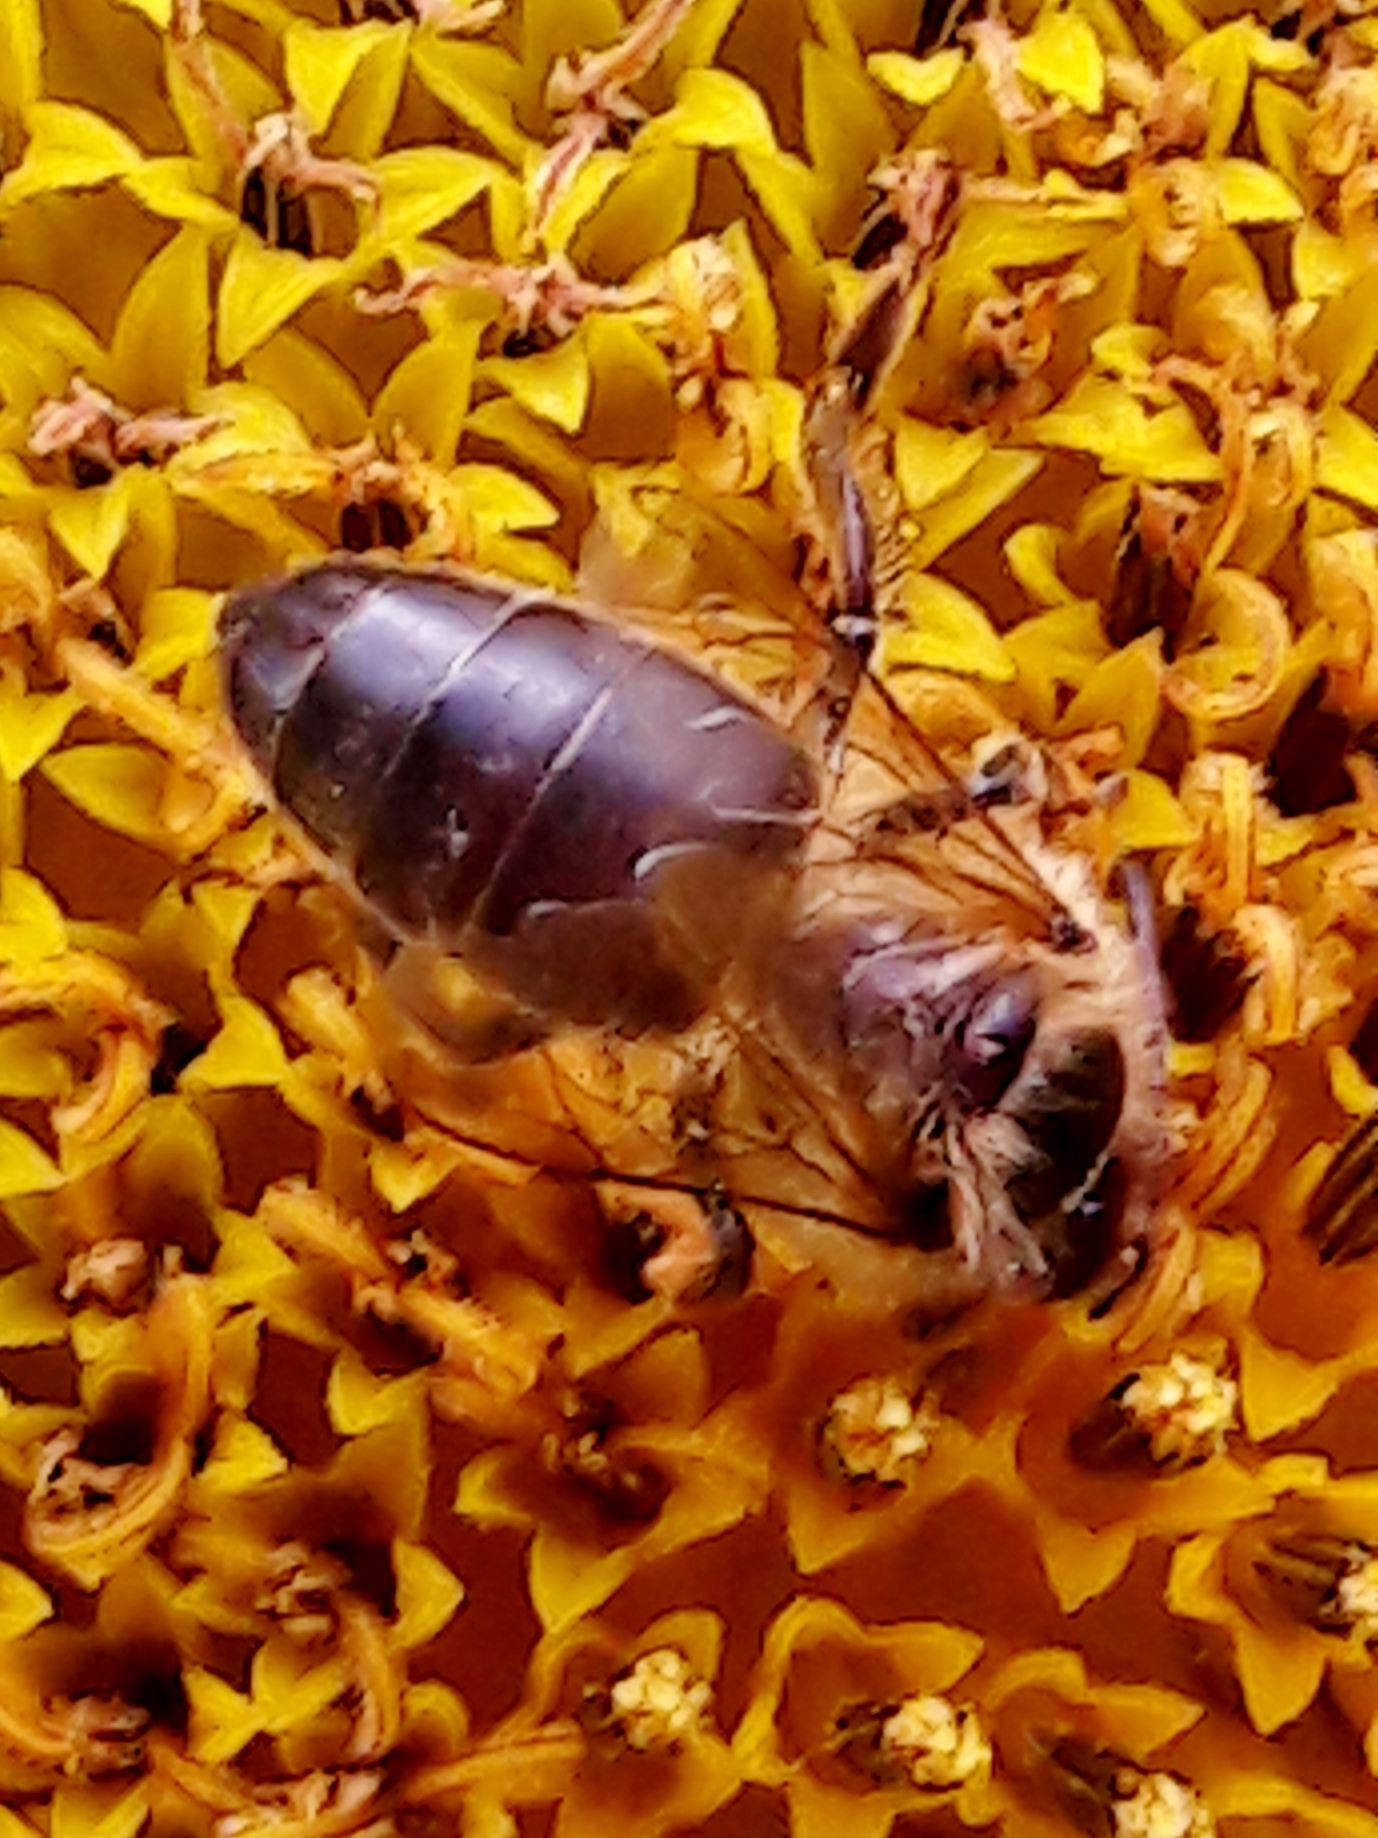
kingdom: Animalia
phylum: Arthropoda
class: Insecta
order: Hymenoptera
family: Apidae
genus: Apis
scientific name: Apis mellifera
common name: Honey bee
